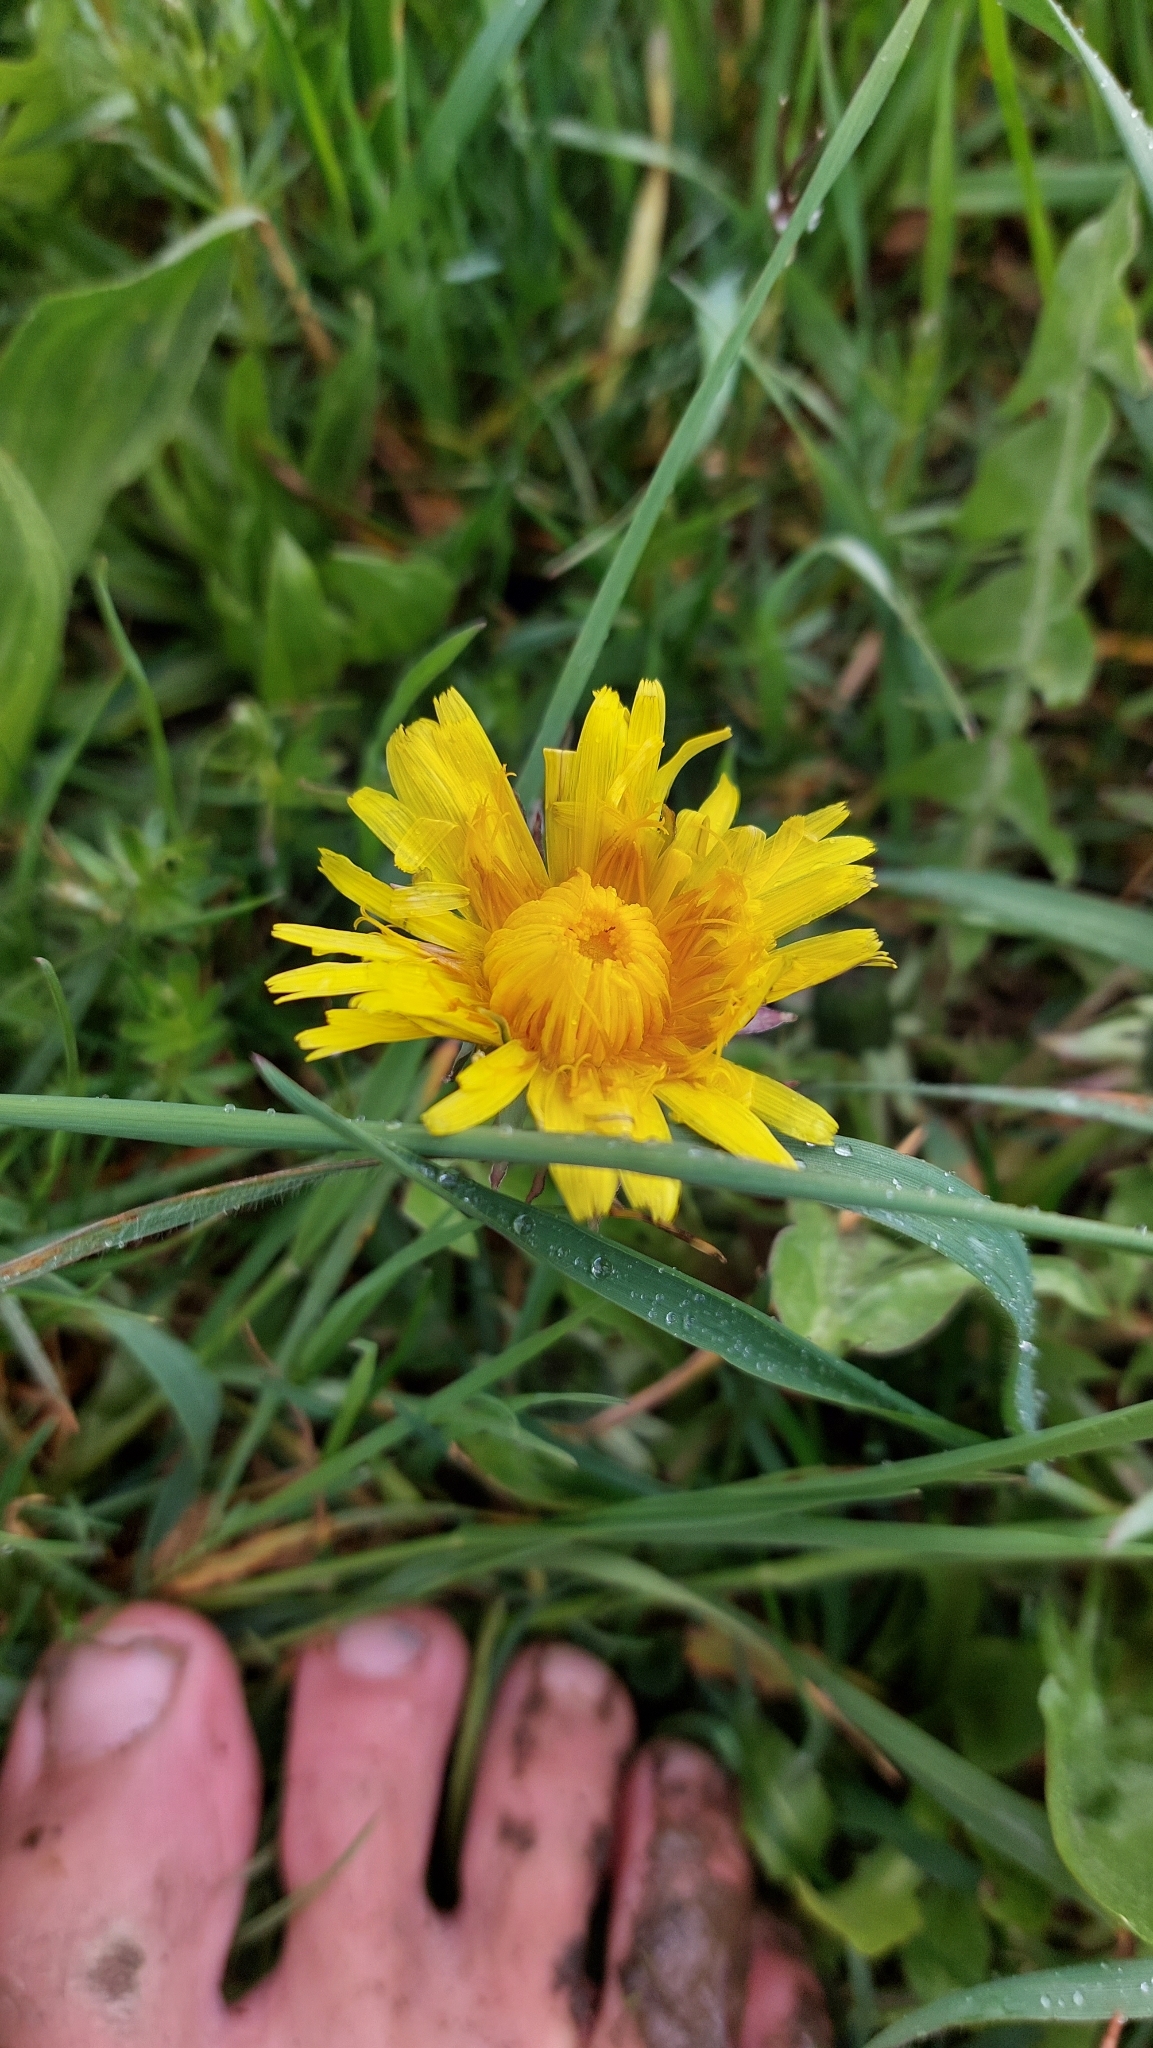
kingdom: Plantae
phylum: Tracheophyta
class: Magnoliopsida
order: Asterales
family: Asteraceae
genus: Taraxacum
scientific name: Taraxacum
